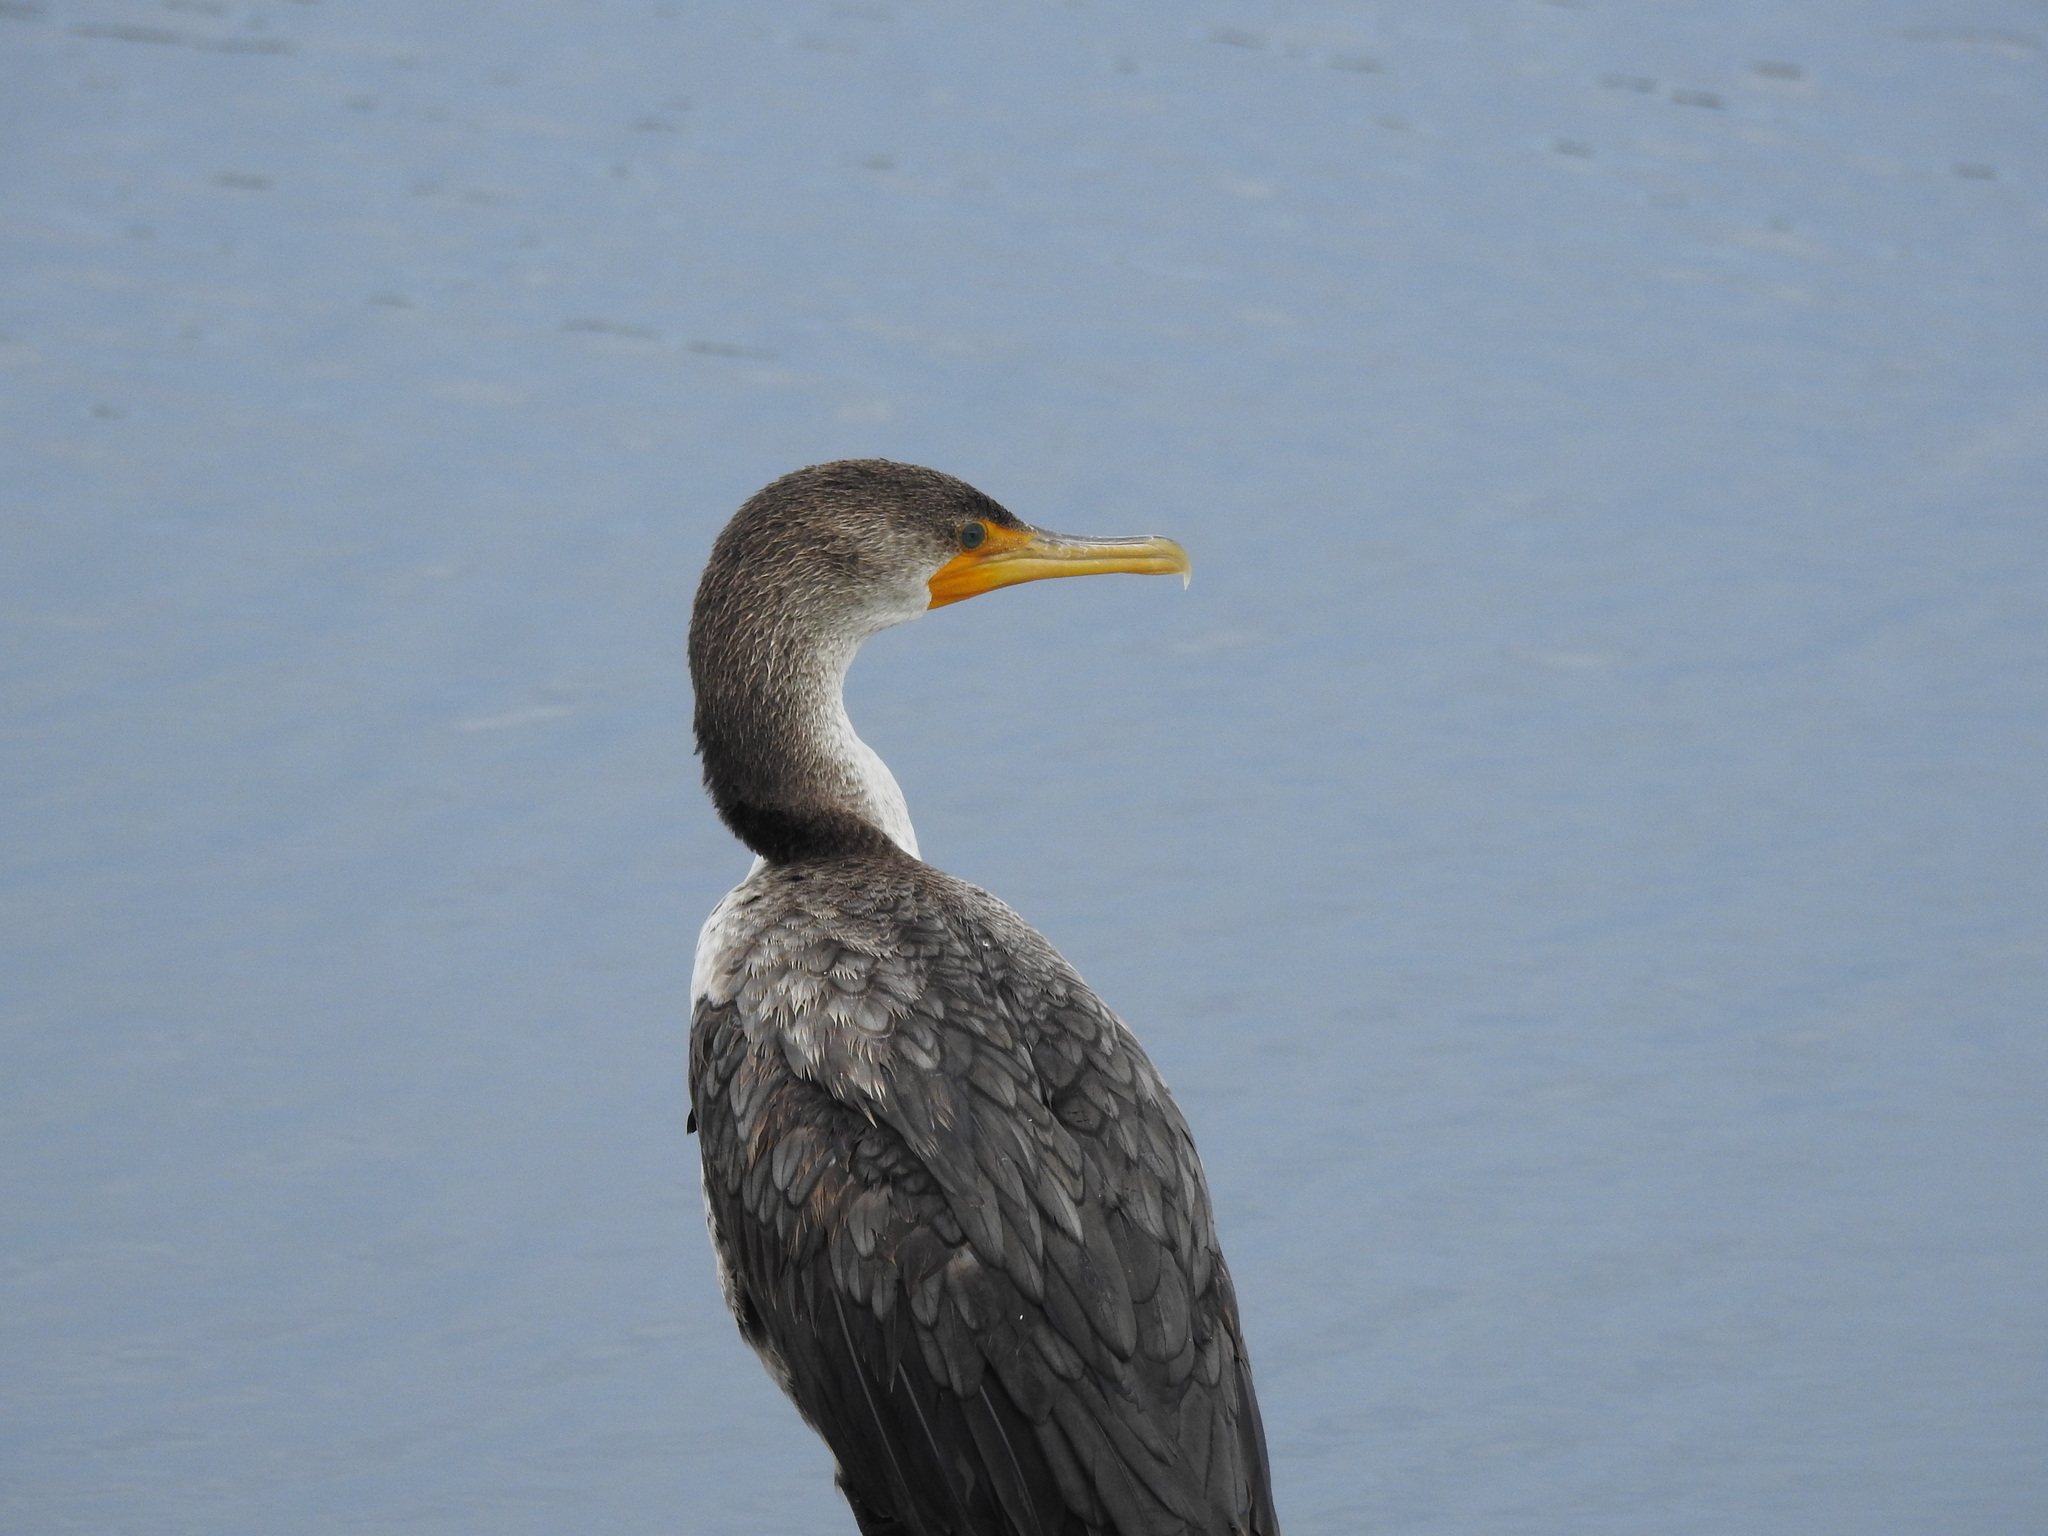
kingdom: Animalia
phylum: Chordata
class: Aves
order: Suliformes
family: Phalacrocoracidae
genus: Phalacrocorax
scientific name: Phalacrocorax auritus
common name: Double-crested cormorant
